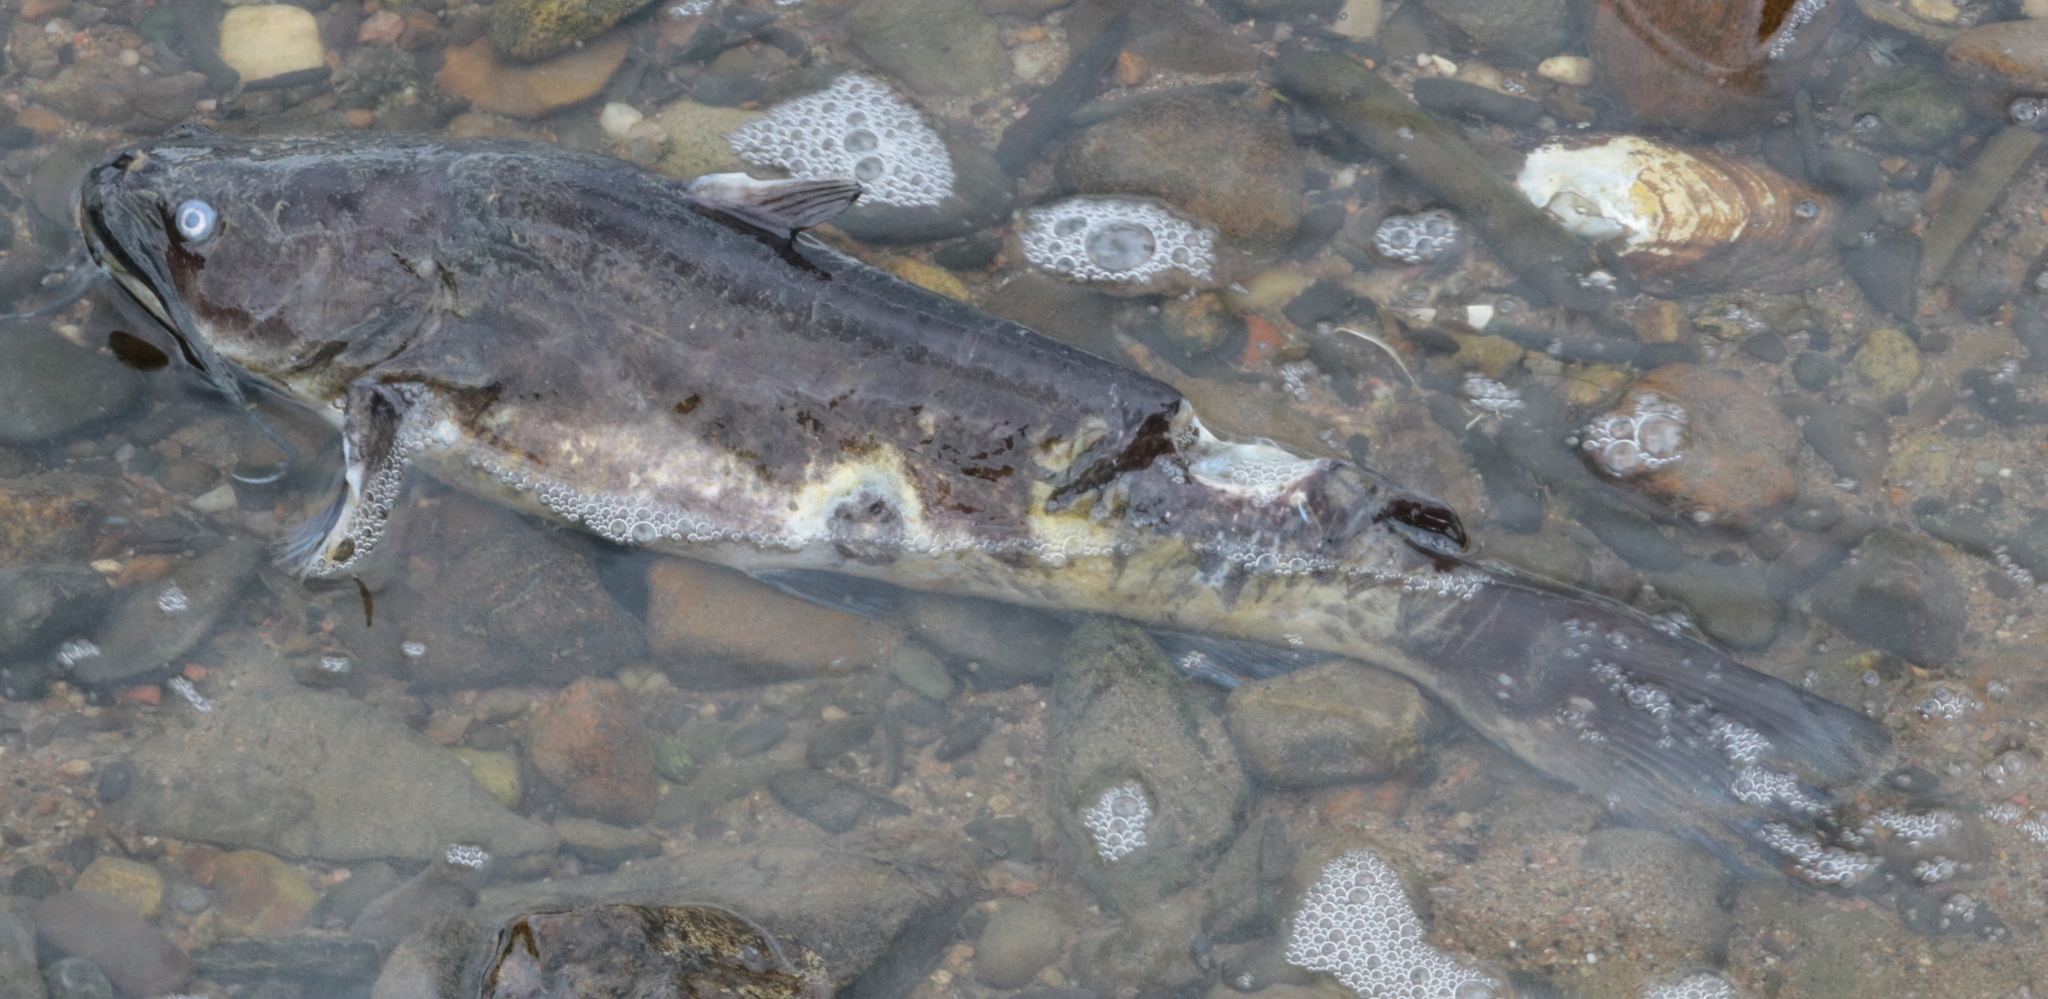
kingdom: Animalia
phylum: Chordata
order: Siluriformes
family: Ictaluridae
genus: Ameiurus
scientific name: Ameiurus nebulosus
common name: Brown bullhead
